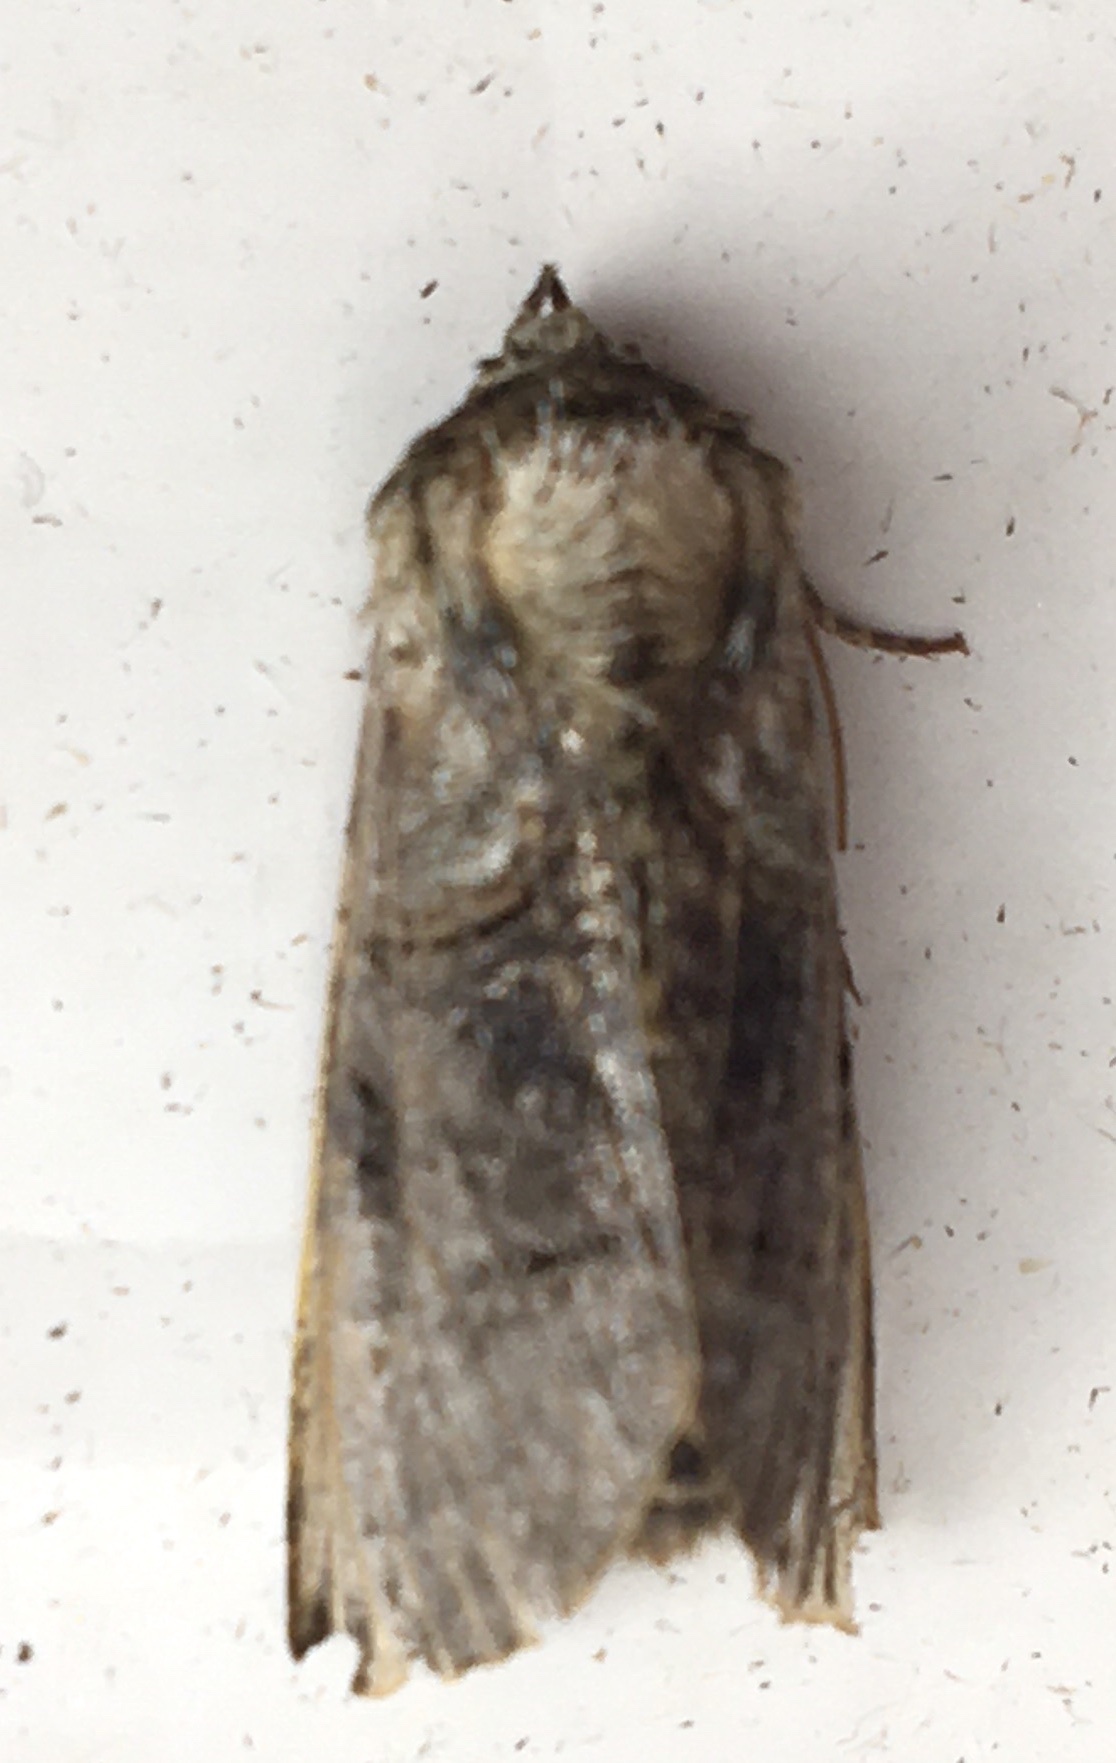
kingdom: Animalia
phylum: Arthropoda
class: Insecta
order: Lepidoptera
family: Noctuidae
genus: Abrostola
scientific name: Abrostola tripartita
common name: Spectacle
